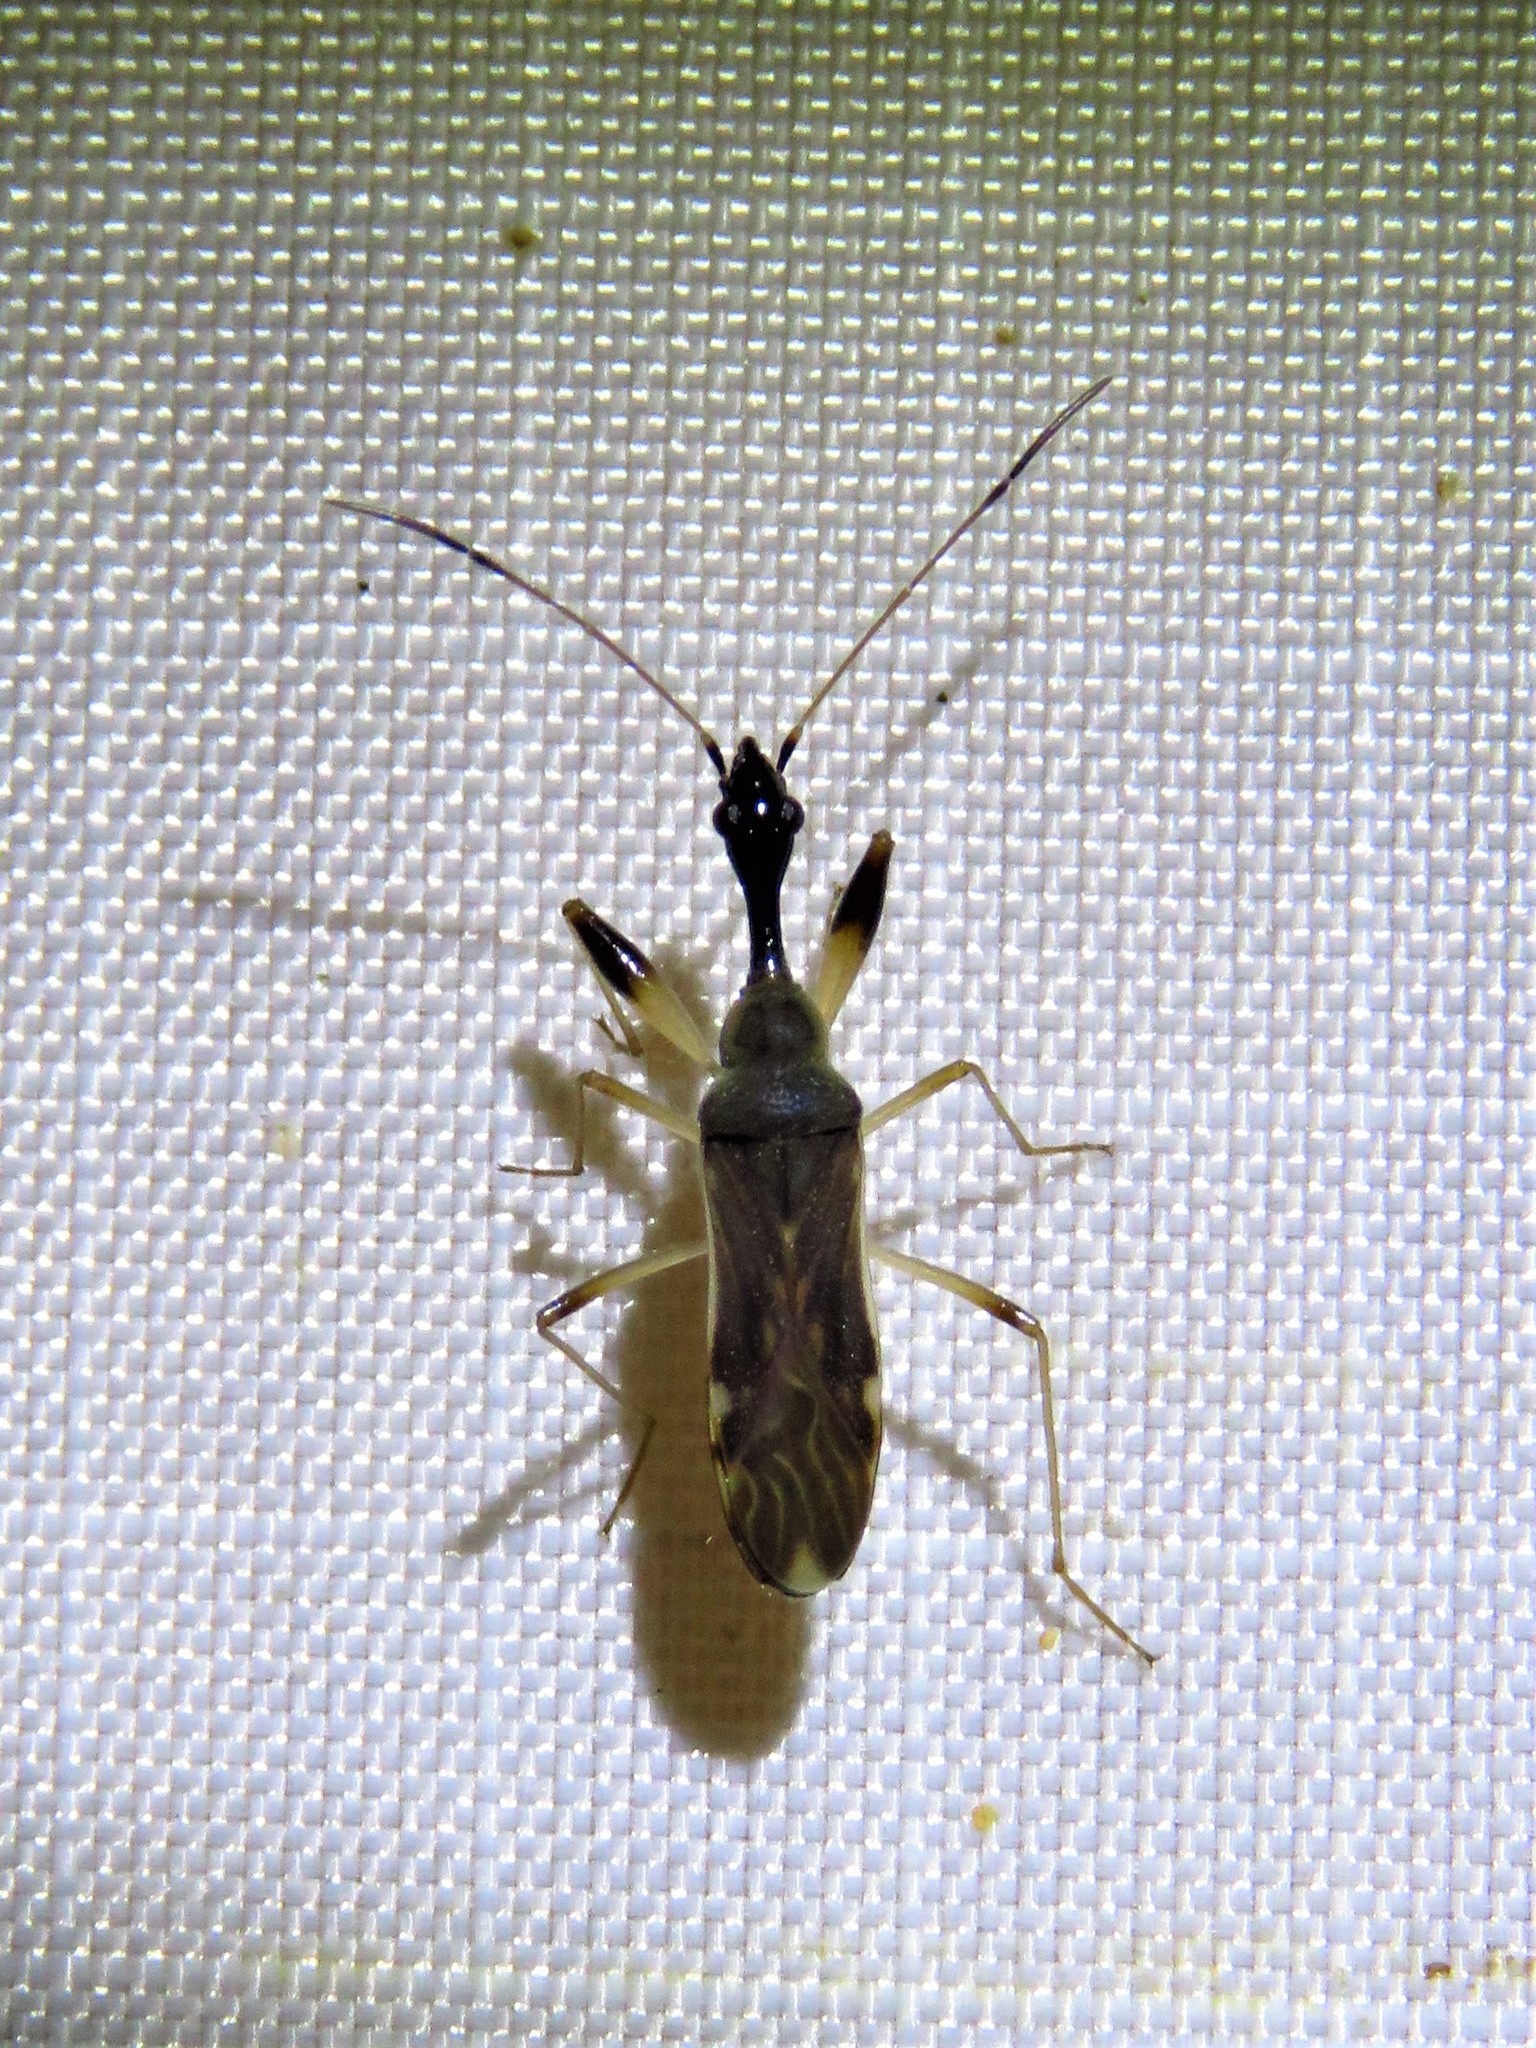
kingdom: Animalia
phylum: Arthropoda
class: Insecta
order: Hemiptera
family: Rhyparochromidae
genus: Myodocha
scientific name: Myodocha serripes
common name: Long-necked seed bug
